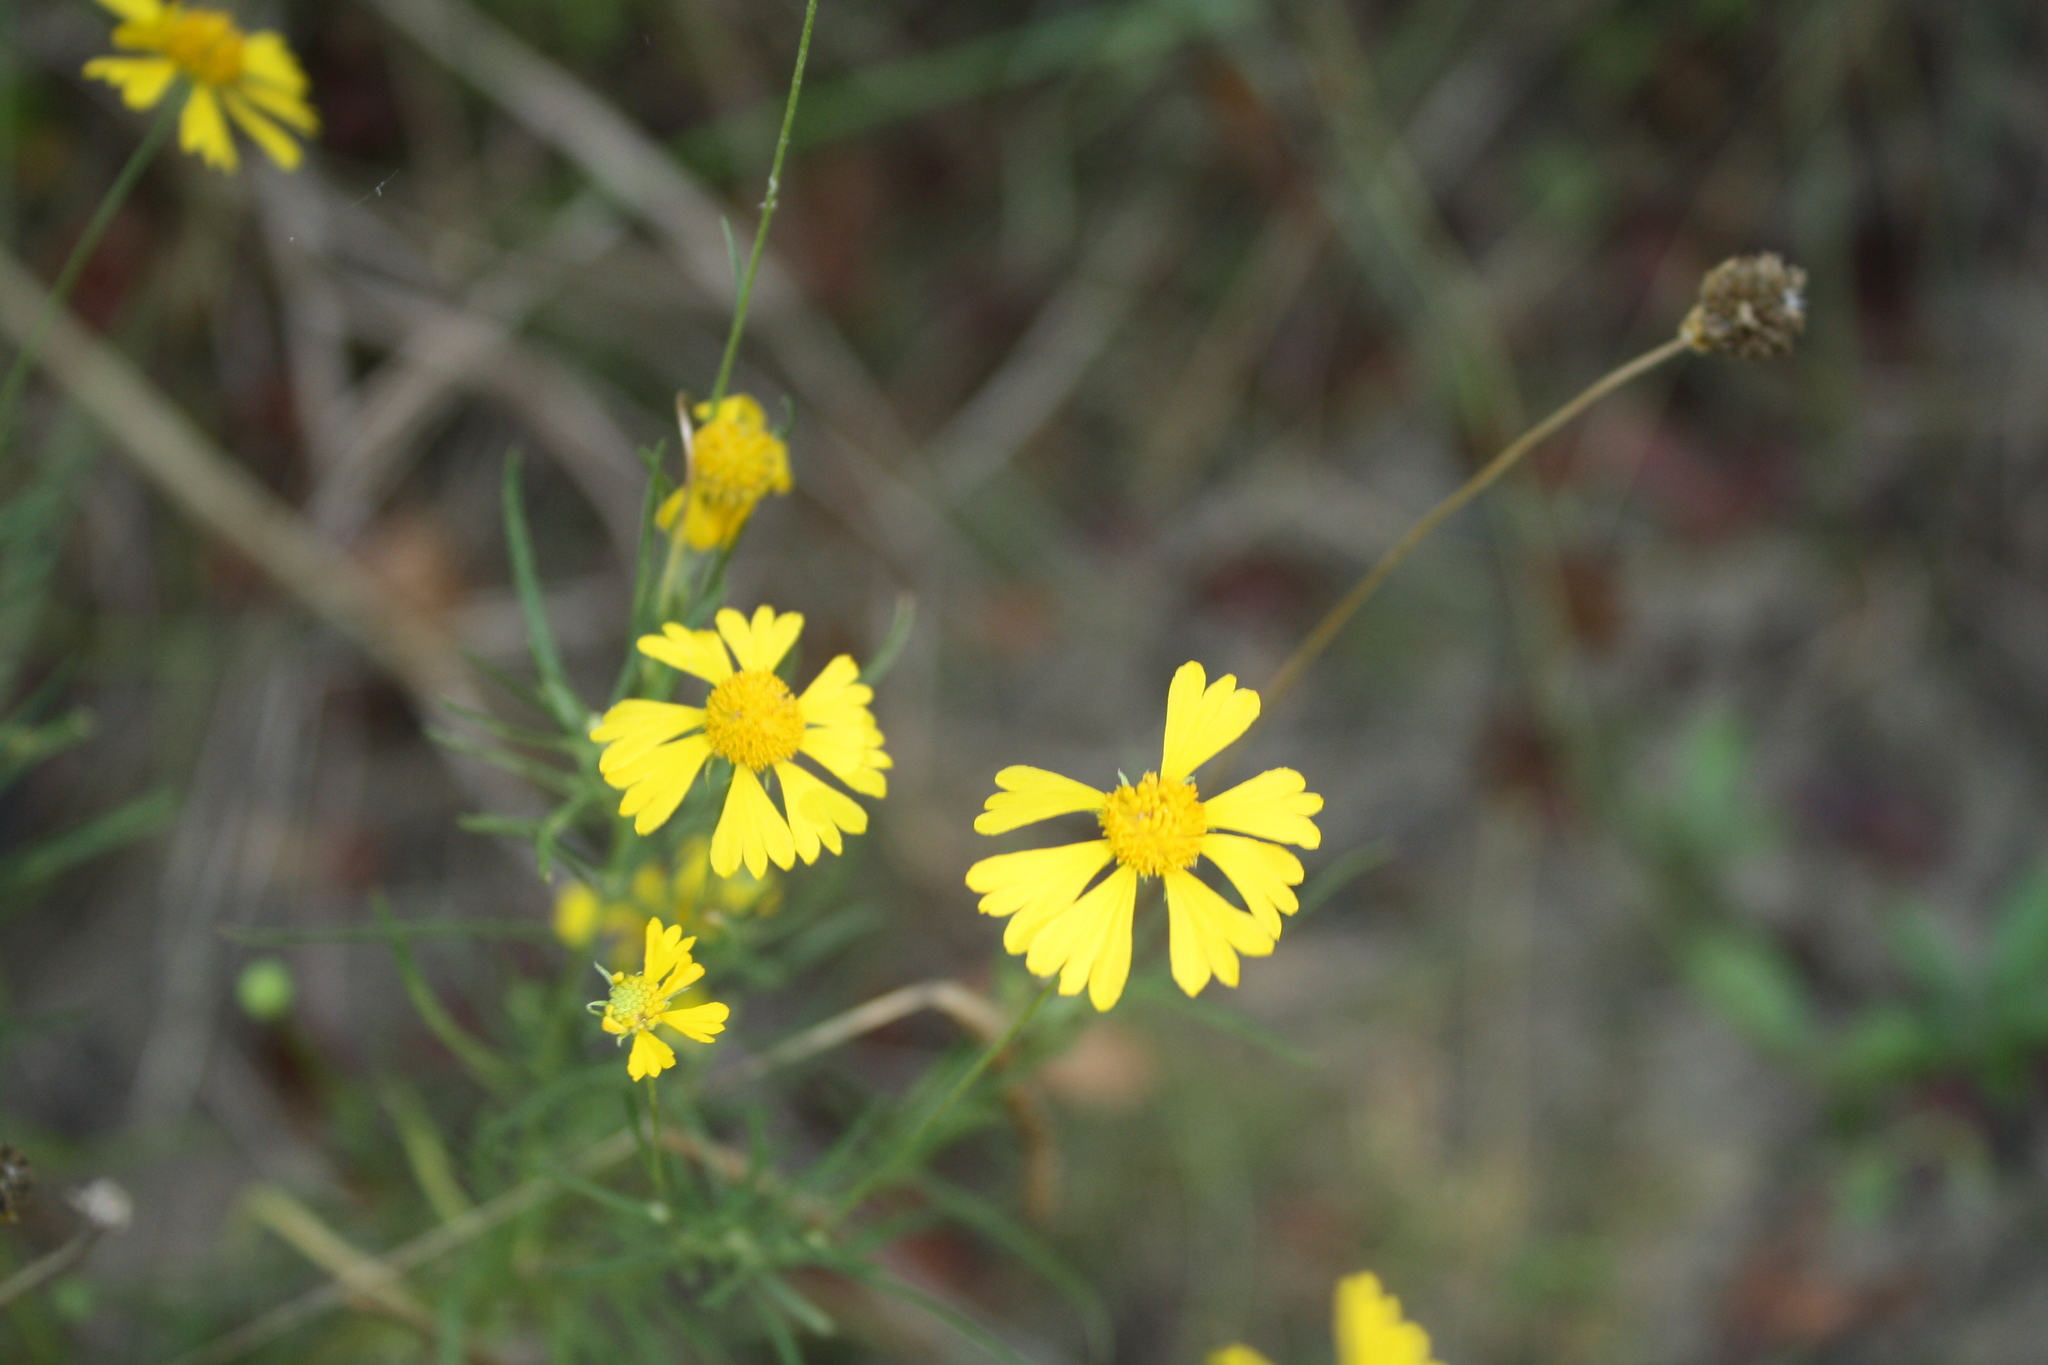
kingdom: Plantae
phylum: Tracheophyta
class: Magnoliopsida
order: Asterales
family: Asteraceae
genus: Helenium
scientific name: Helenium amarum
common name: Bitter sneezeweed
